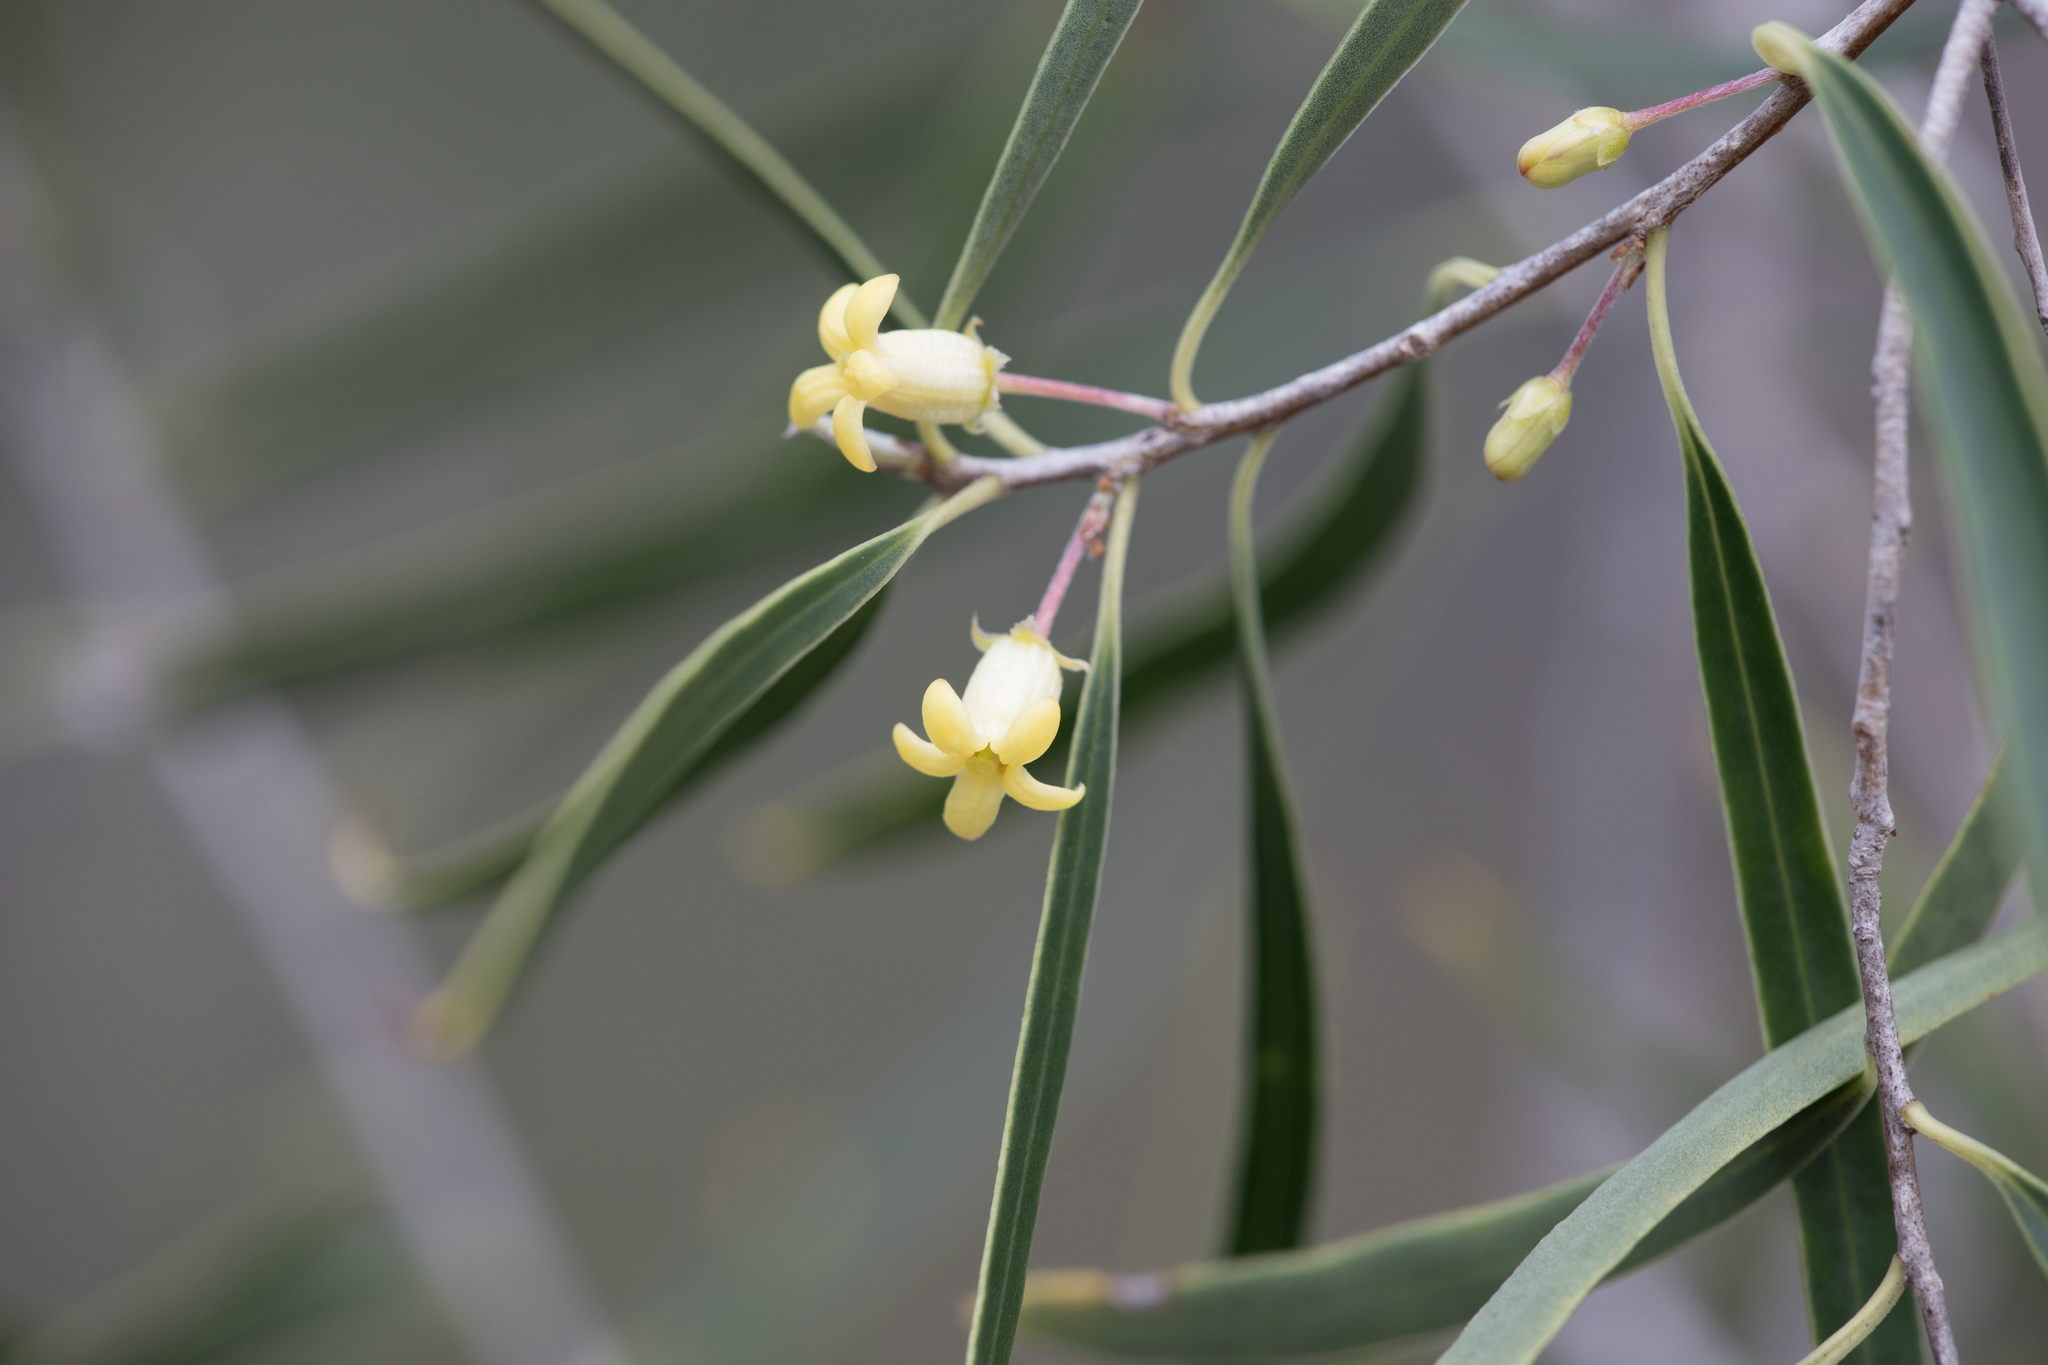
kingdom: Plantae
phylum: Tracheophyta
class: Magnoliopsida
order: Apiales
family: Pittosporaceae
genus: Pittosporum
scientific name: Pittosporum angustifolium
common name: Weeping pittosporum
